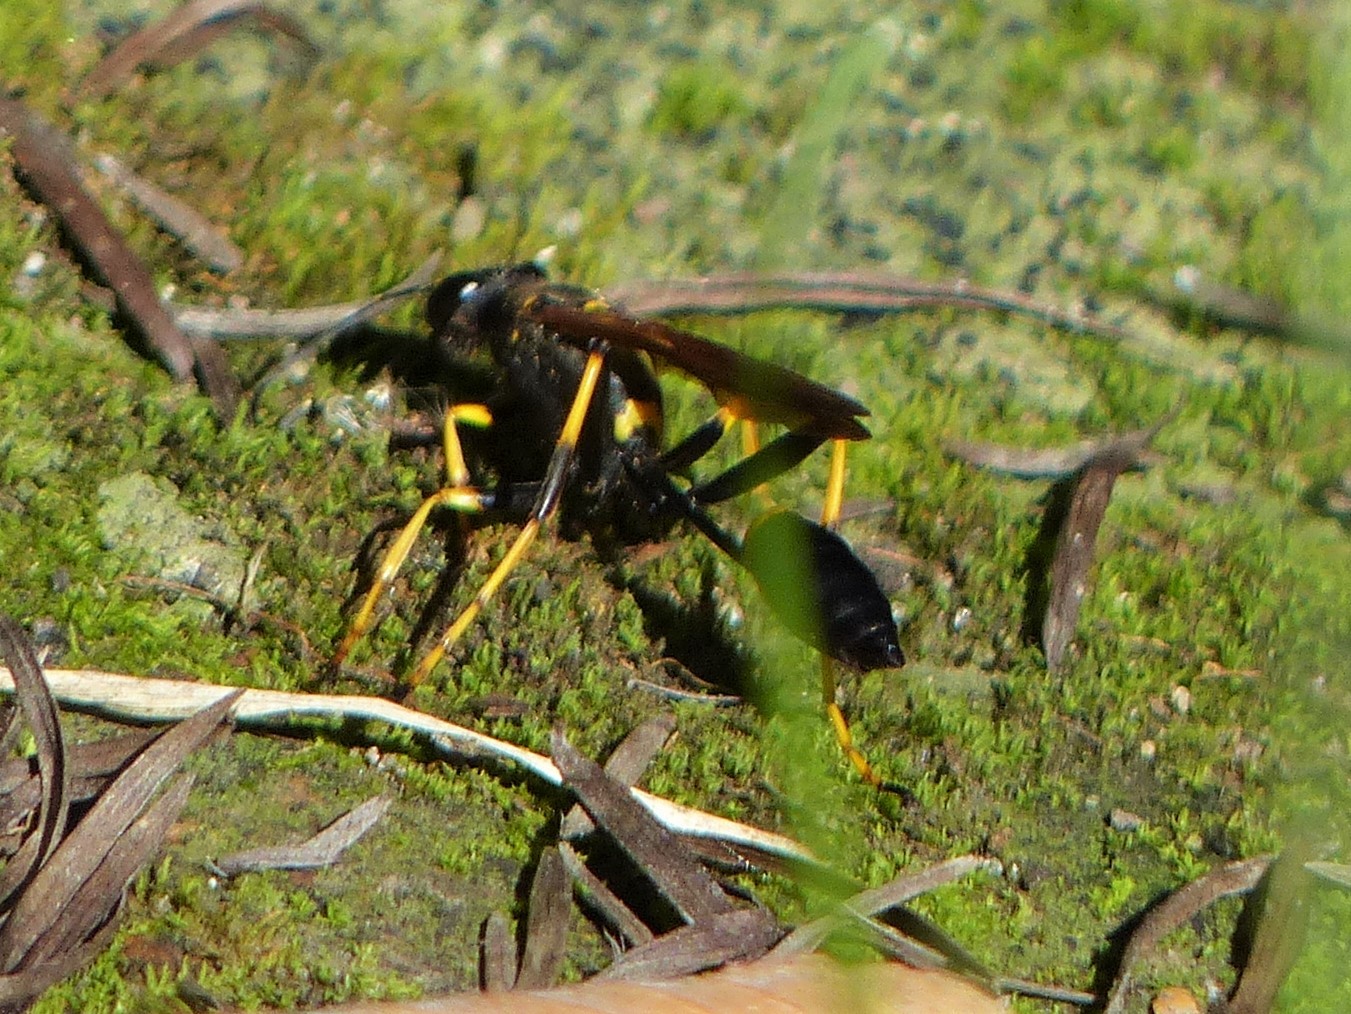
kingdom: Animalia
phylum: Arthropoda
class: Insecta
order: Hymenoptera
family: Sphecidae
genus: Sceliphron
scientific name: Sceliphron caementarium
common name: Mud dauber
